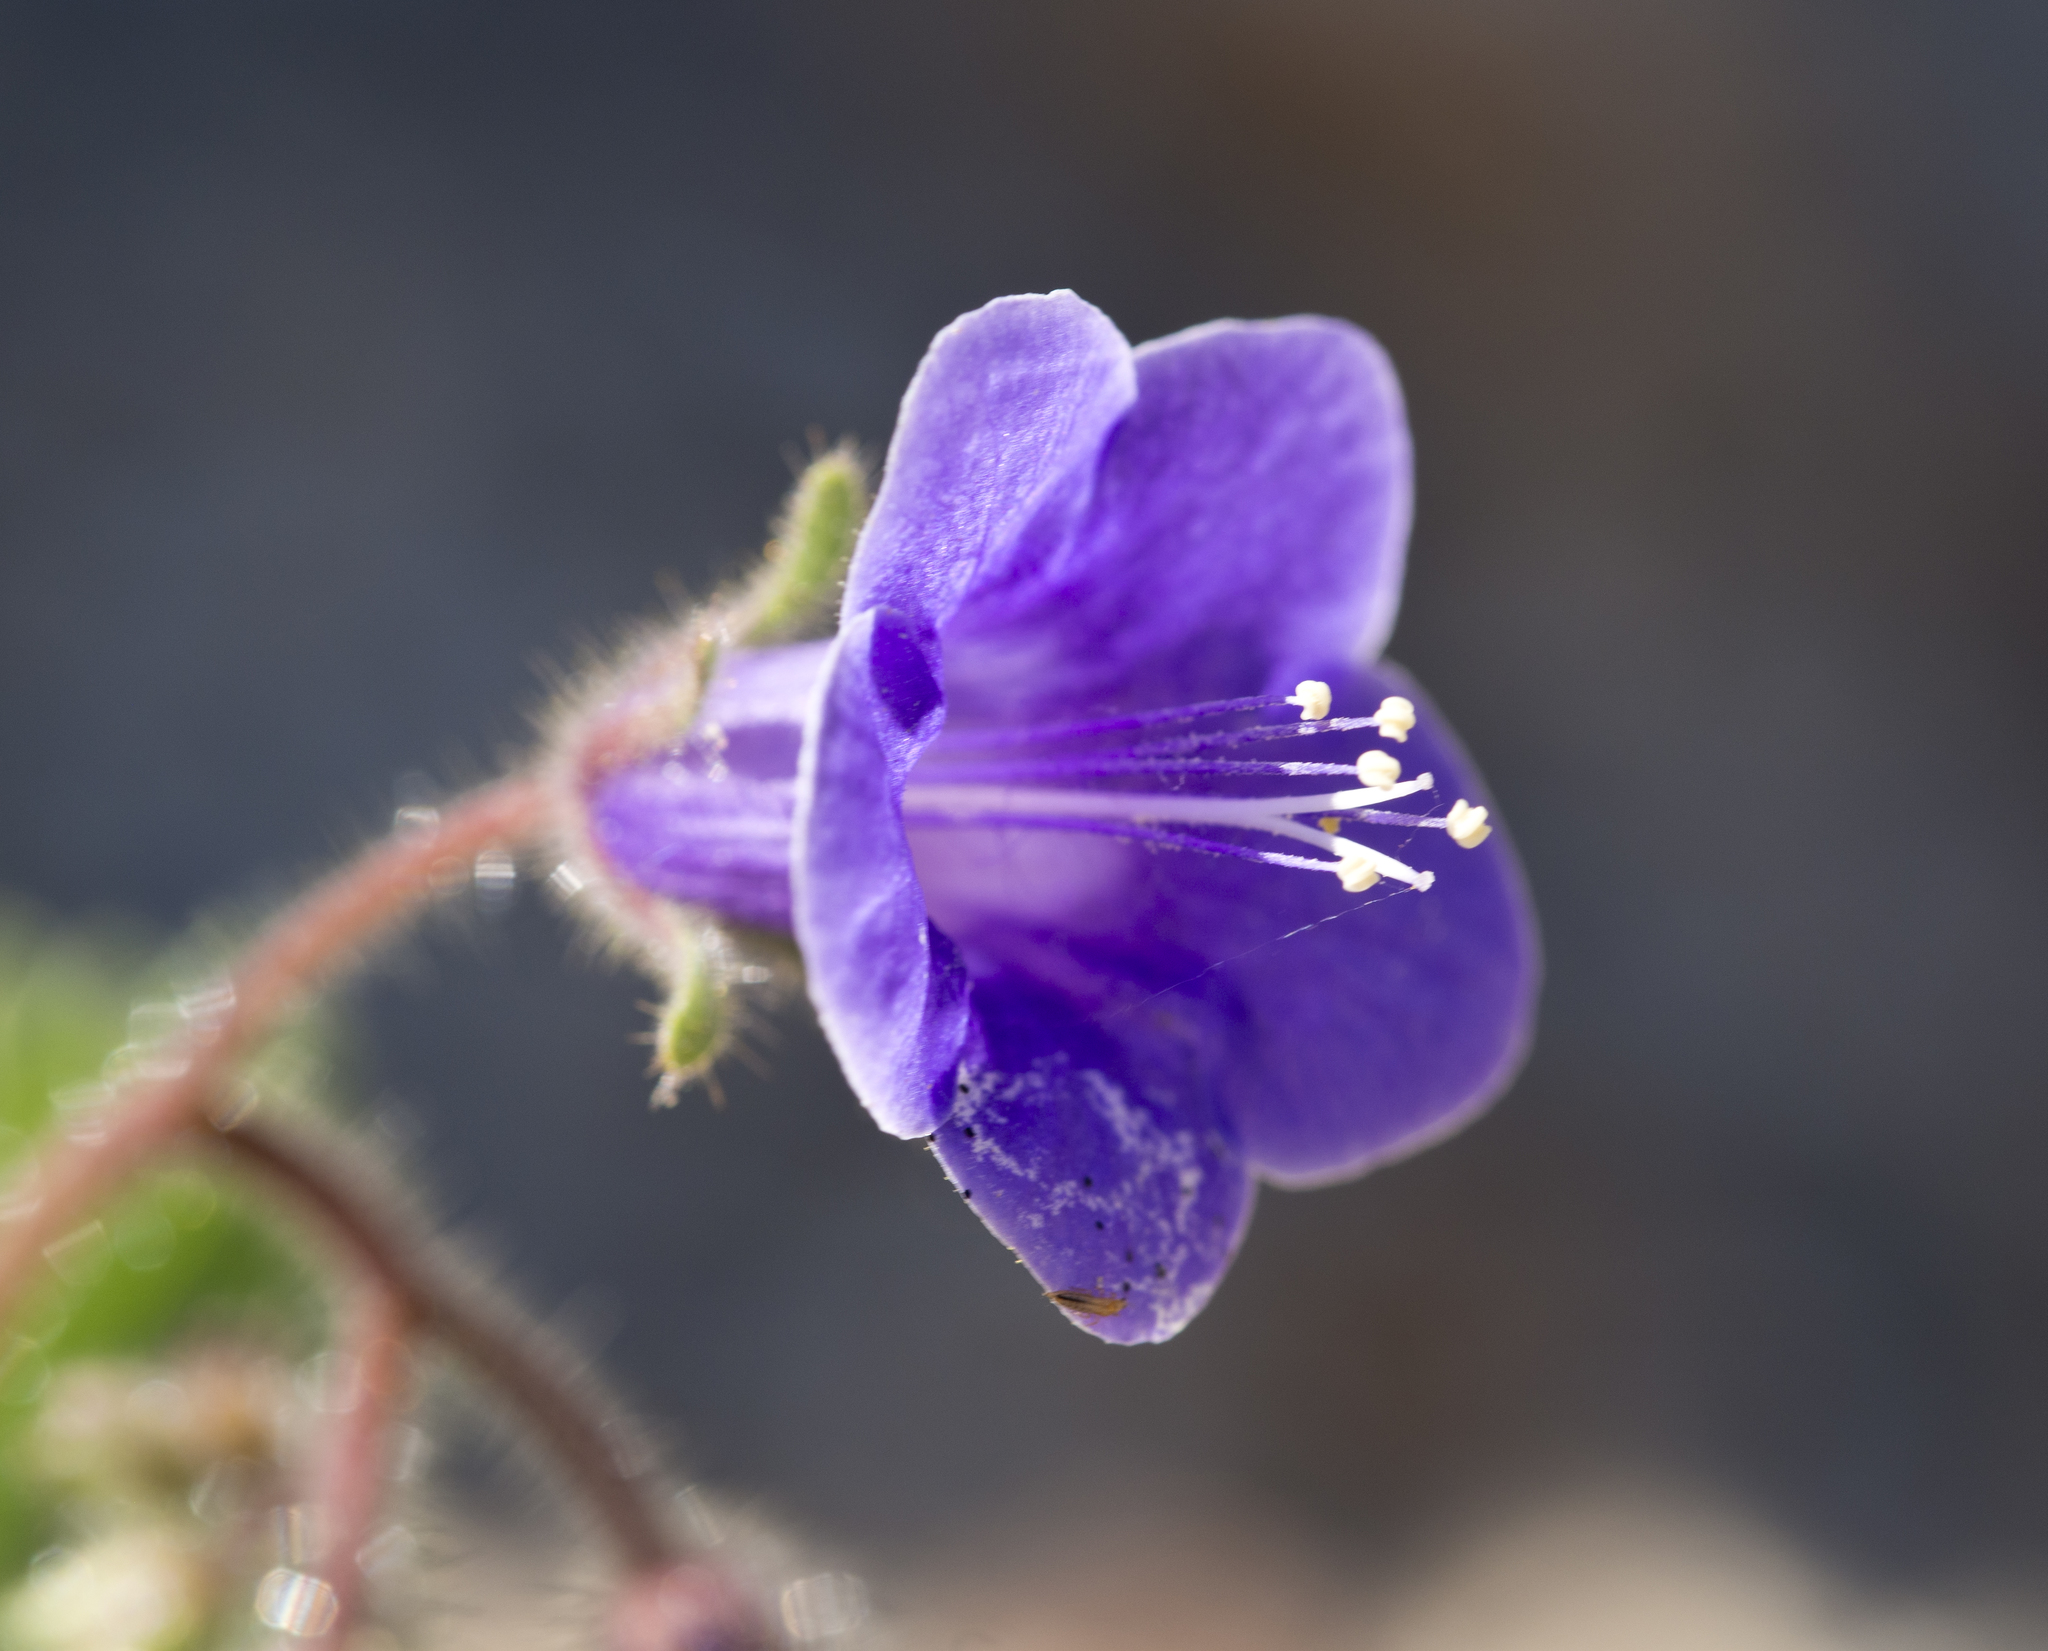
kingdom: Plantae
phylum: Tracheophyta
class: Magnoliopsida
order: Boraginales
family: Hydrophyllaceae
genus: Phacelia
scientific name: Phacelia minor
